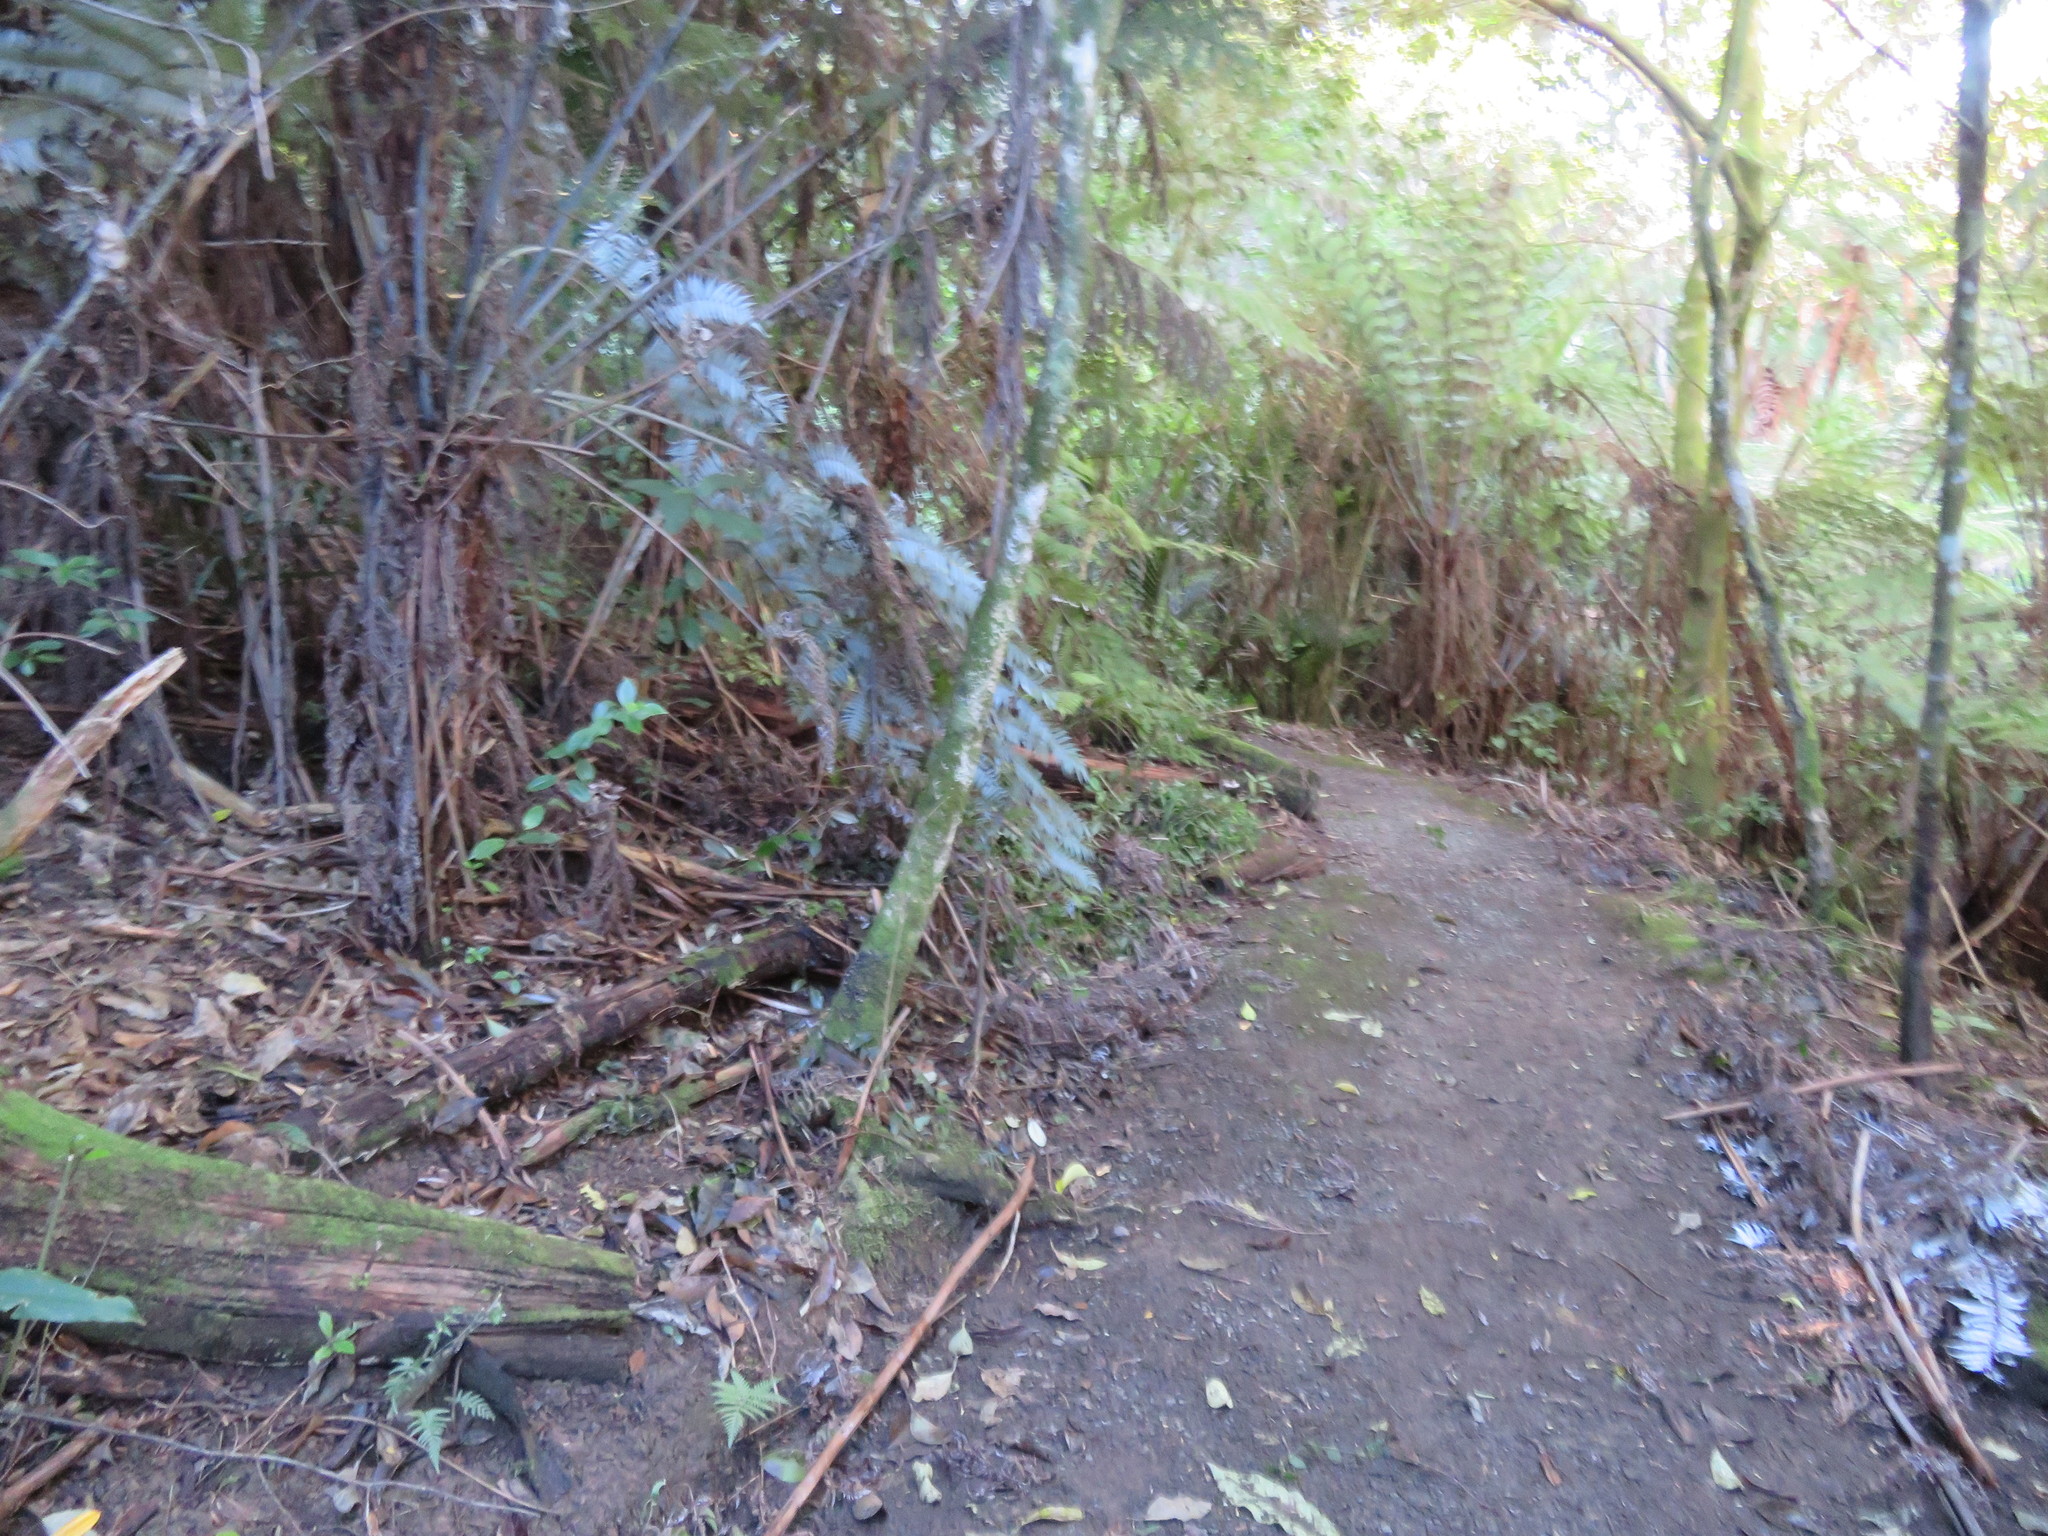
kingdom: Plantae
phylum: Tracheophyta
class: Polypodiopsida
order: Cyatheales
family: Cyatheaceae
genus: Alsophila
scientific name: Alsophila dealbata
